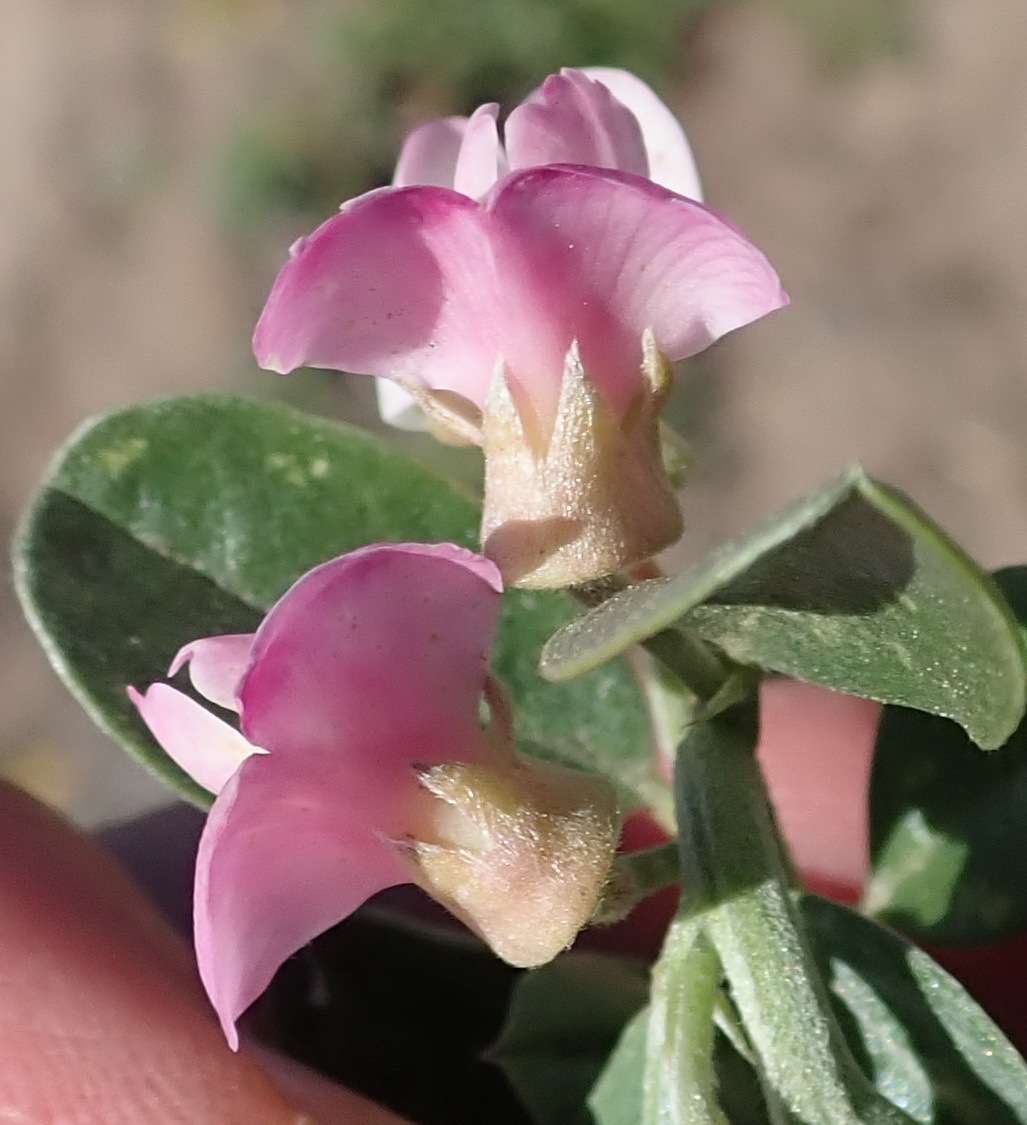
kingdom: Plantae
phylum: Tracheophyta
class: Magnoliopsida
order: Fabales
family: Fabaceae
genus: Podalyria
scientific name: Podalyria myrtillifolia
